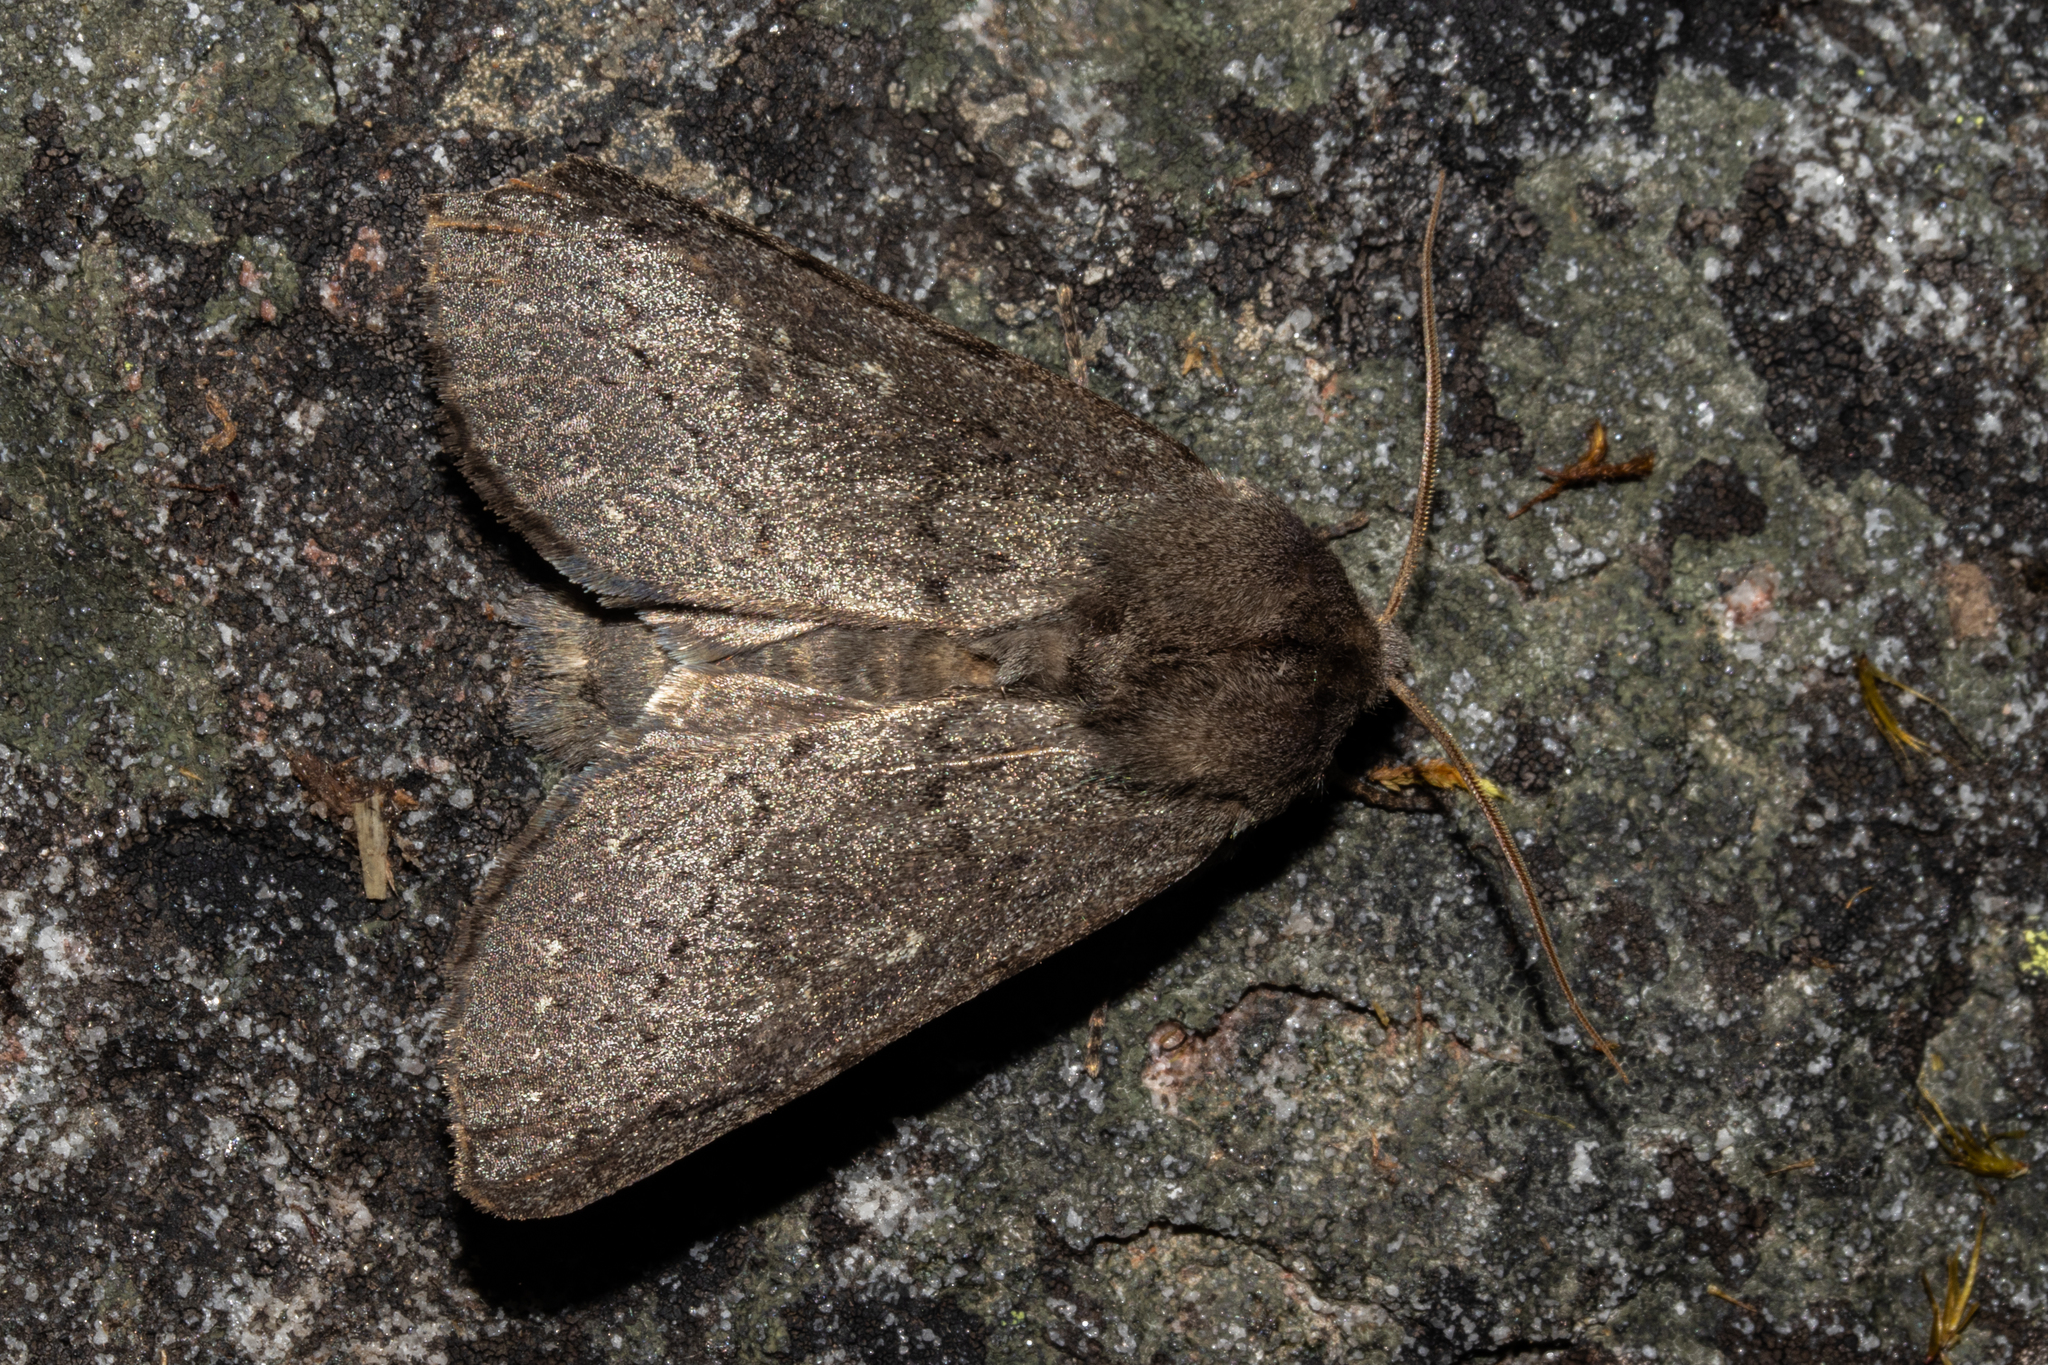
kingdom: Animalia
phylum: Arthropoda
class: Insecta
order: Lepidoptera
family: Noctuidae
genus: Ichneutica
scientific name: Ichneutica nullifera
